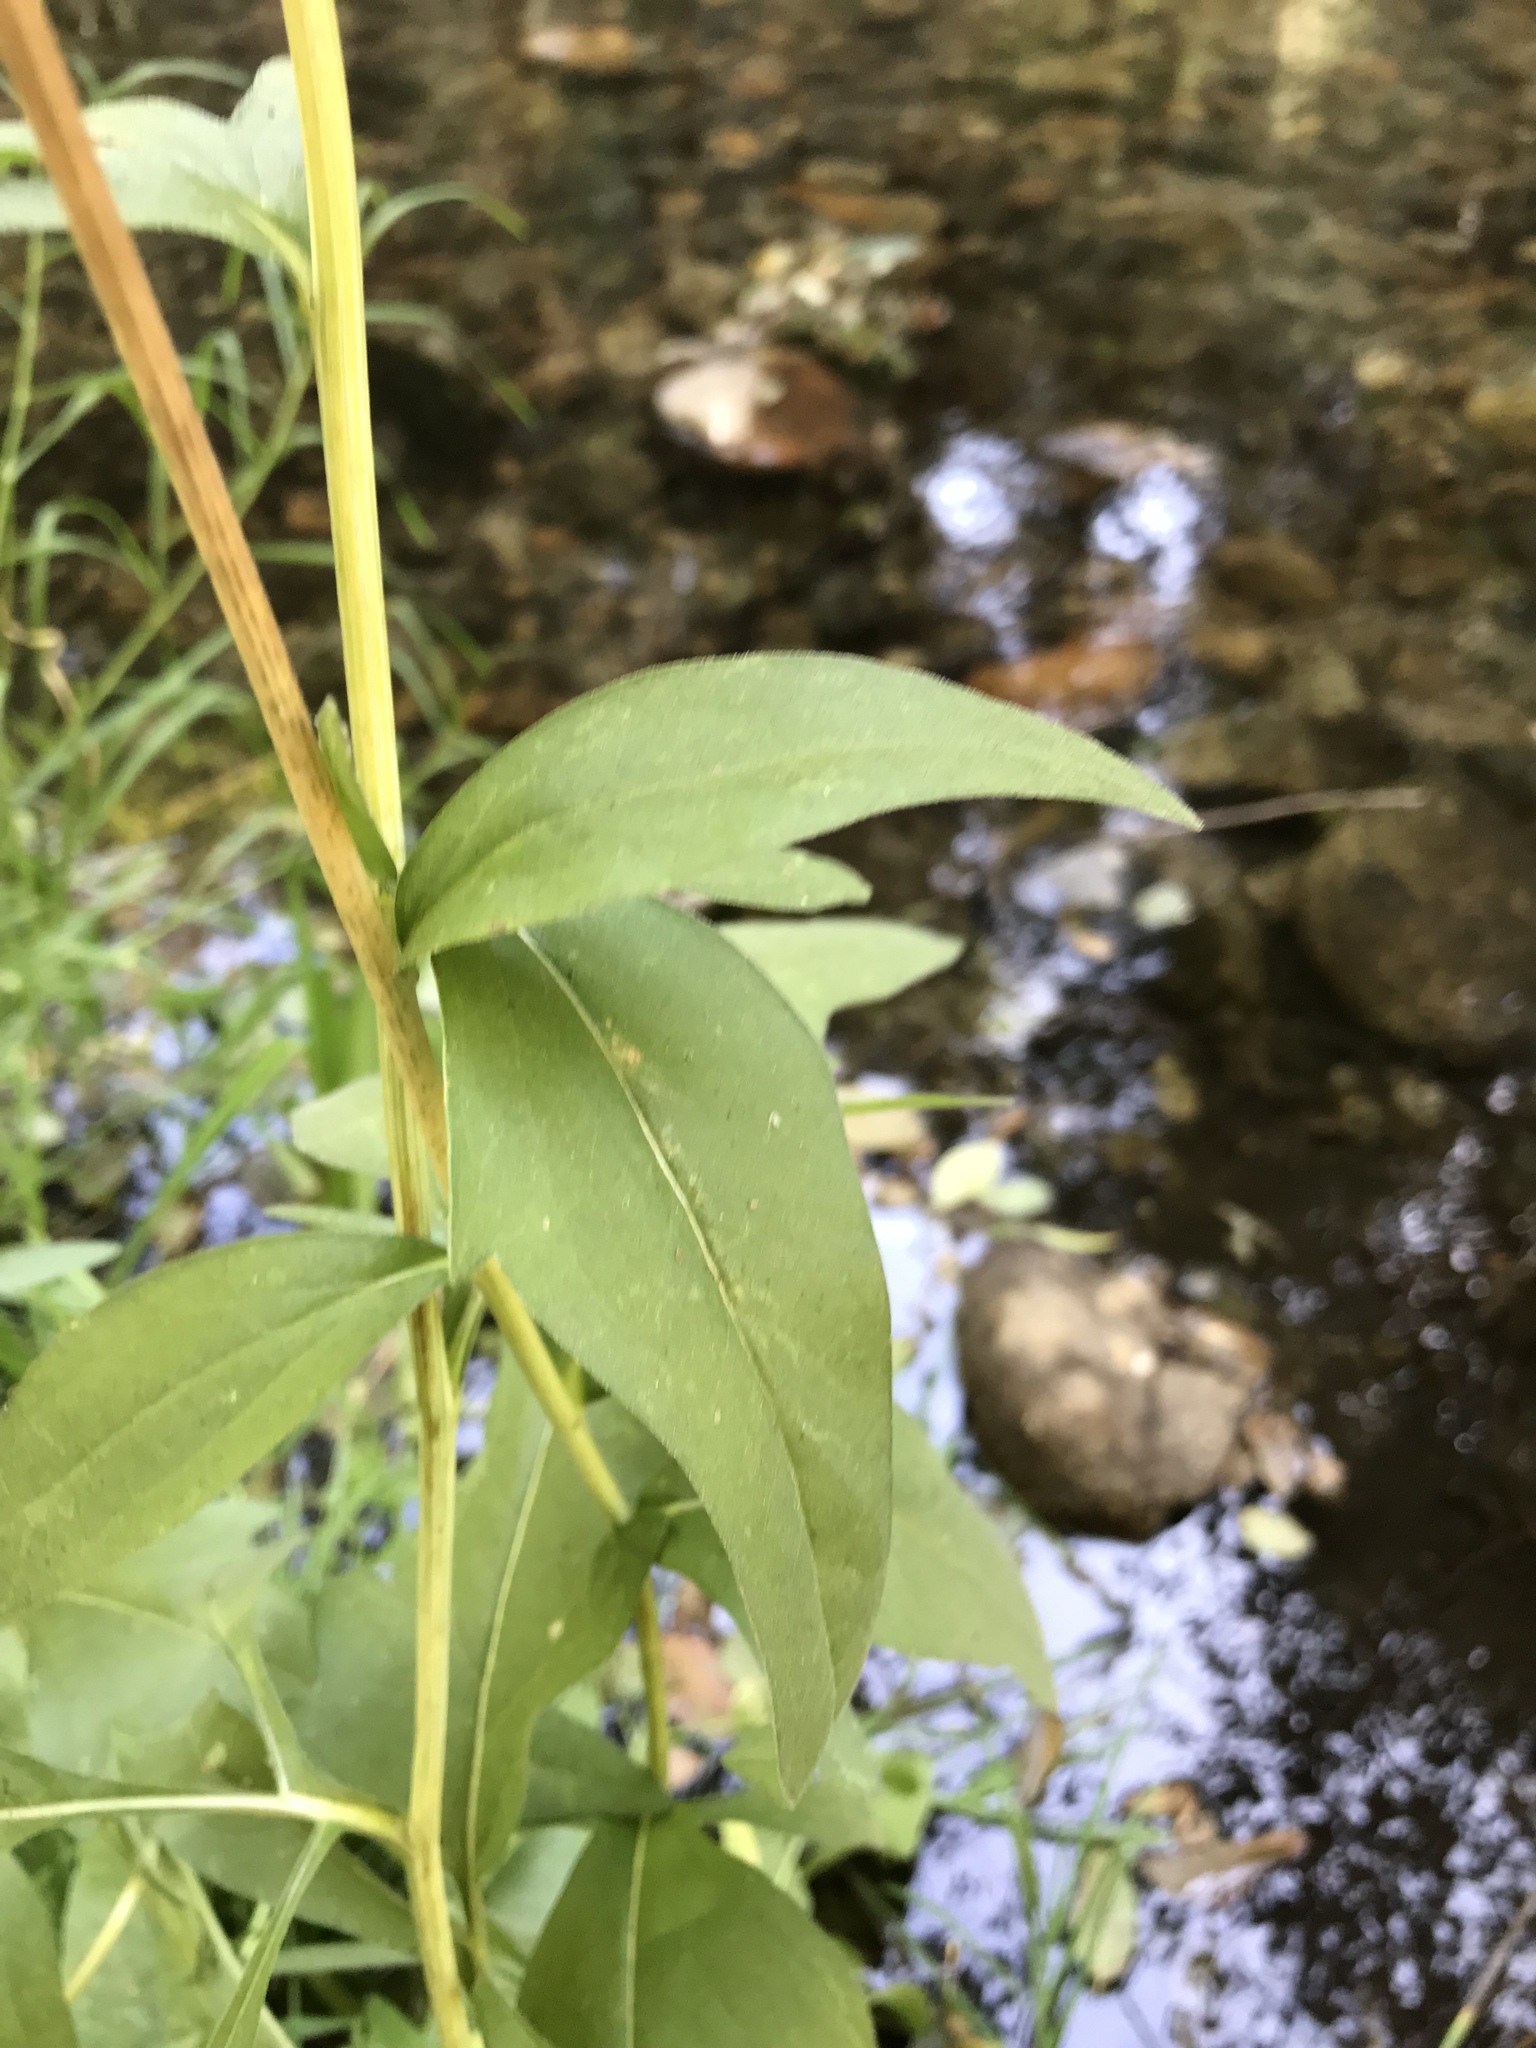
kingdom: Plantae
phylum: Tracheophyta
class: Magnoliopsida
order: Asterales
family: Asteraceae
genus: Rudbeckia
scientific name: Rudbeckia californica
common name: California coneflower
